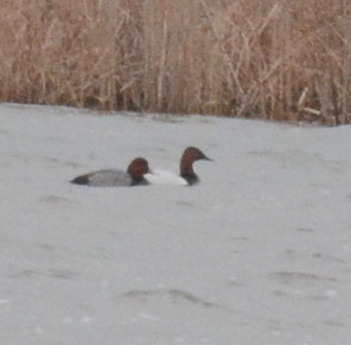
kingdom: Animalia
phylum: Chordata
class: Aves
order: Anseriformes
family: Anatidae
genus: Aythya
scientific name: Aythya americana
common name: Redhead
